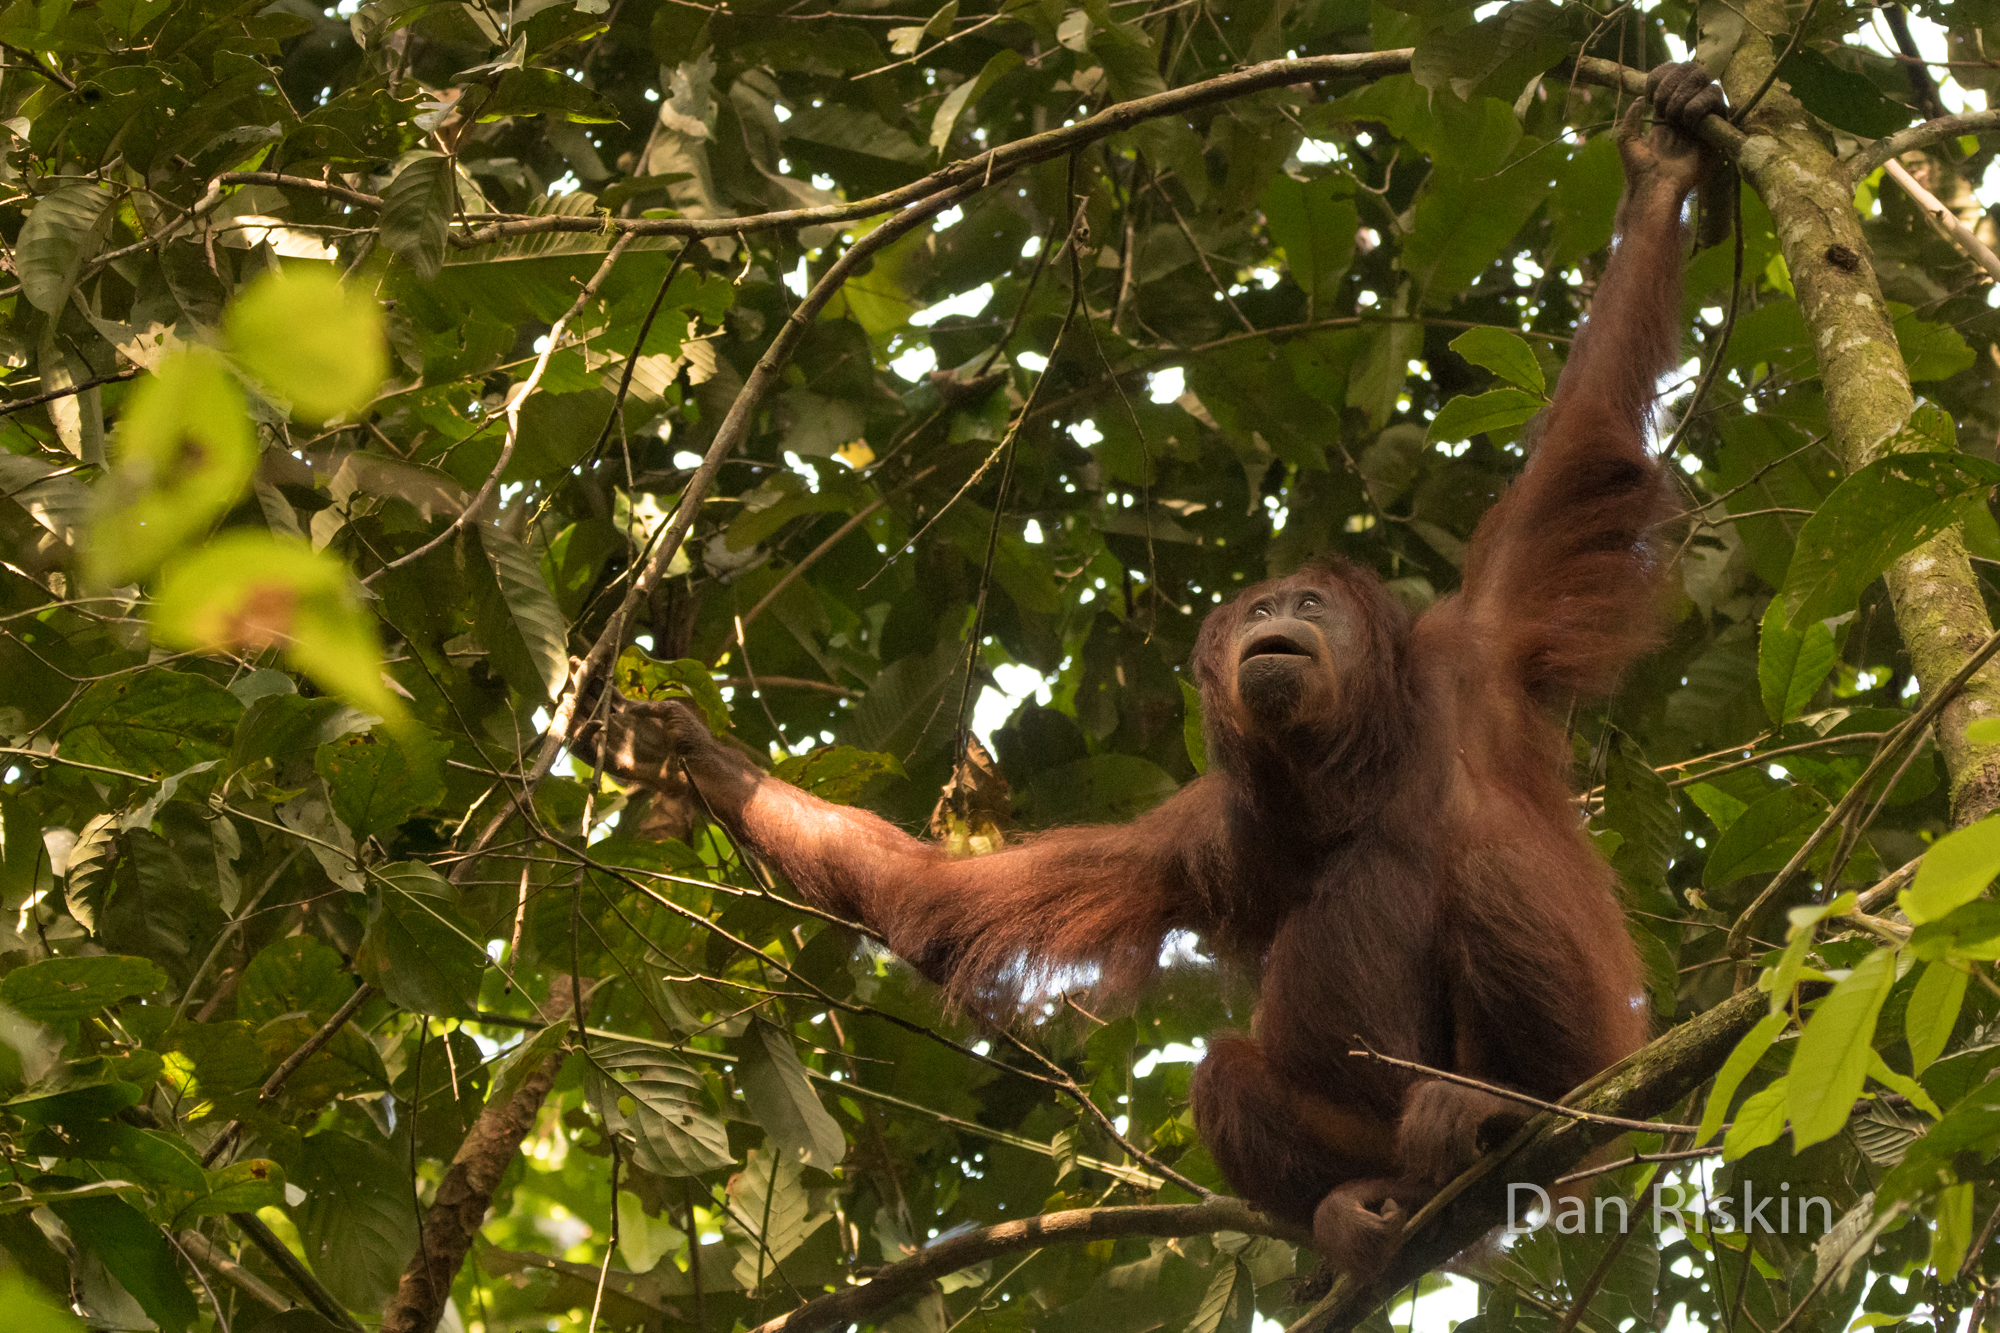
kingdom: Animalia
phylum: Chordata
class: Mammalia
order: Primates
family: Hominidae
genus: Pongo
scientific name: Pongo pygmaeus
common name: Bornean orangutan
